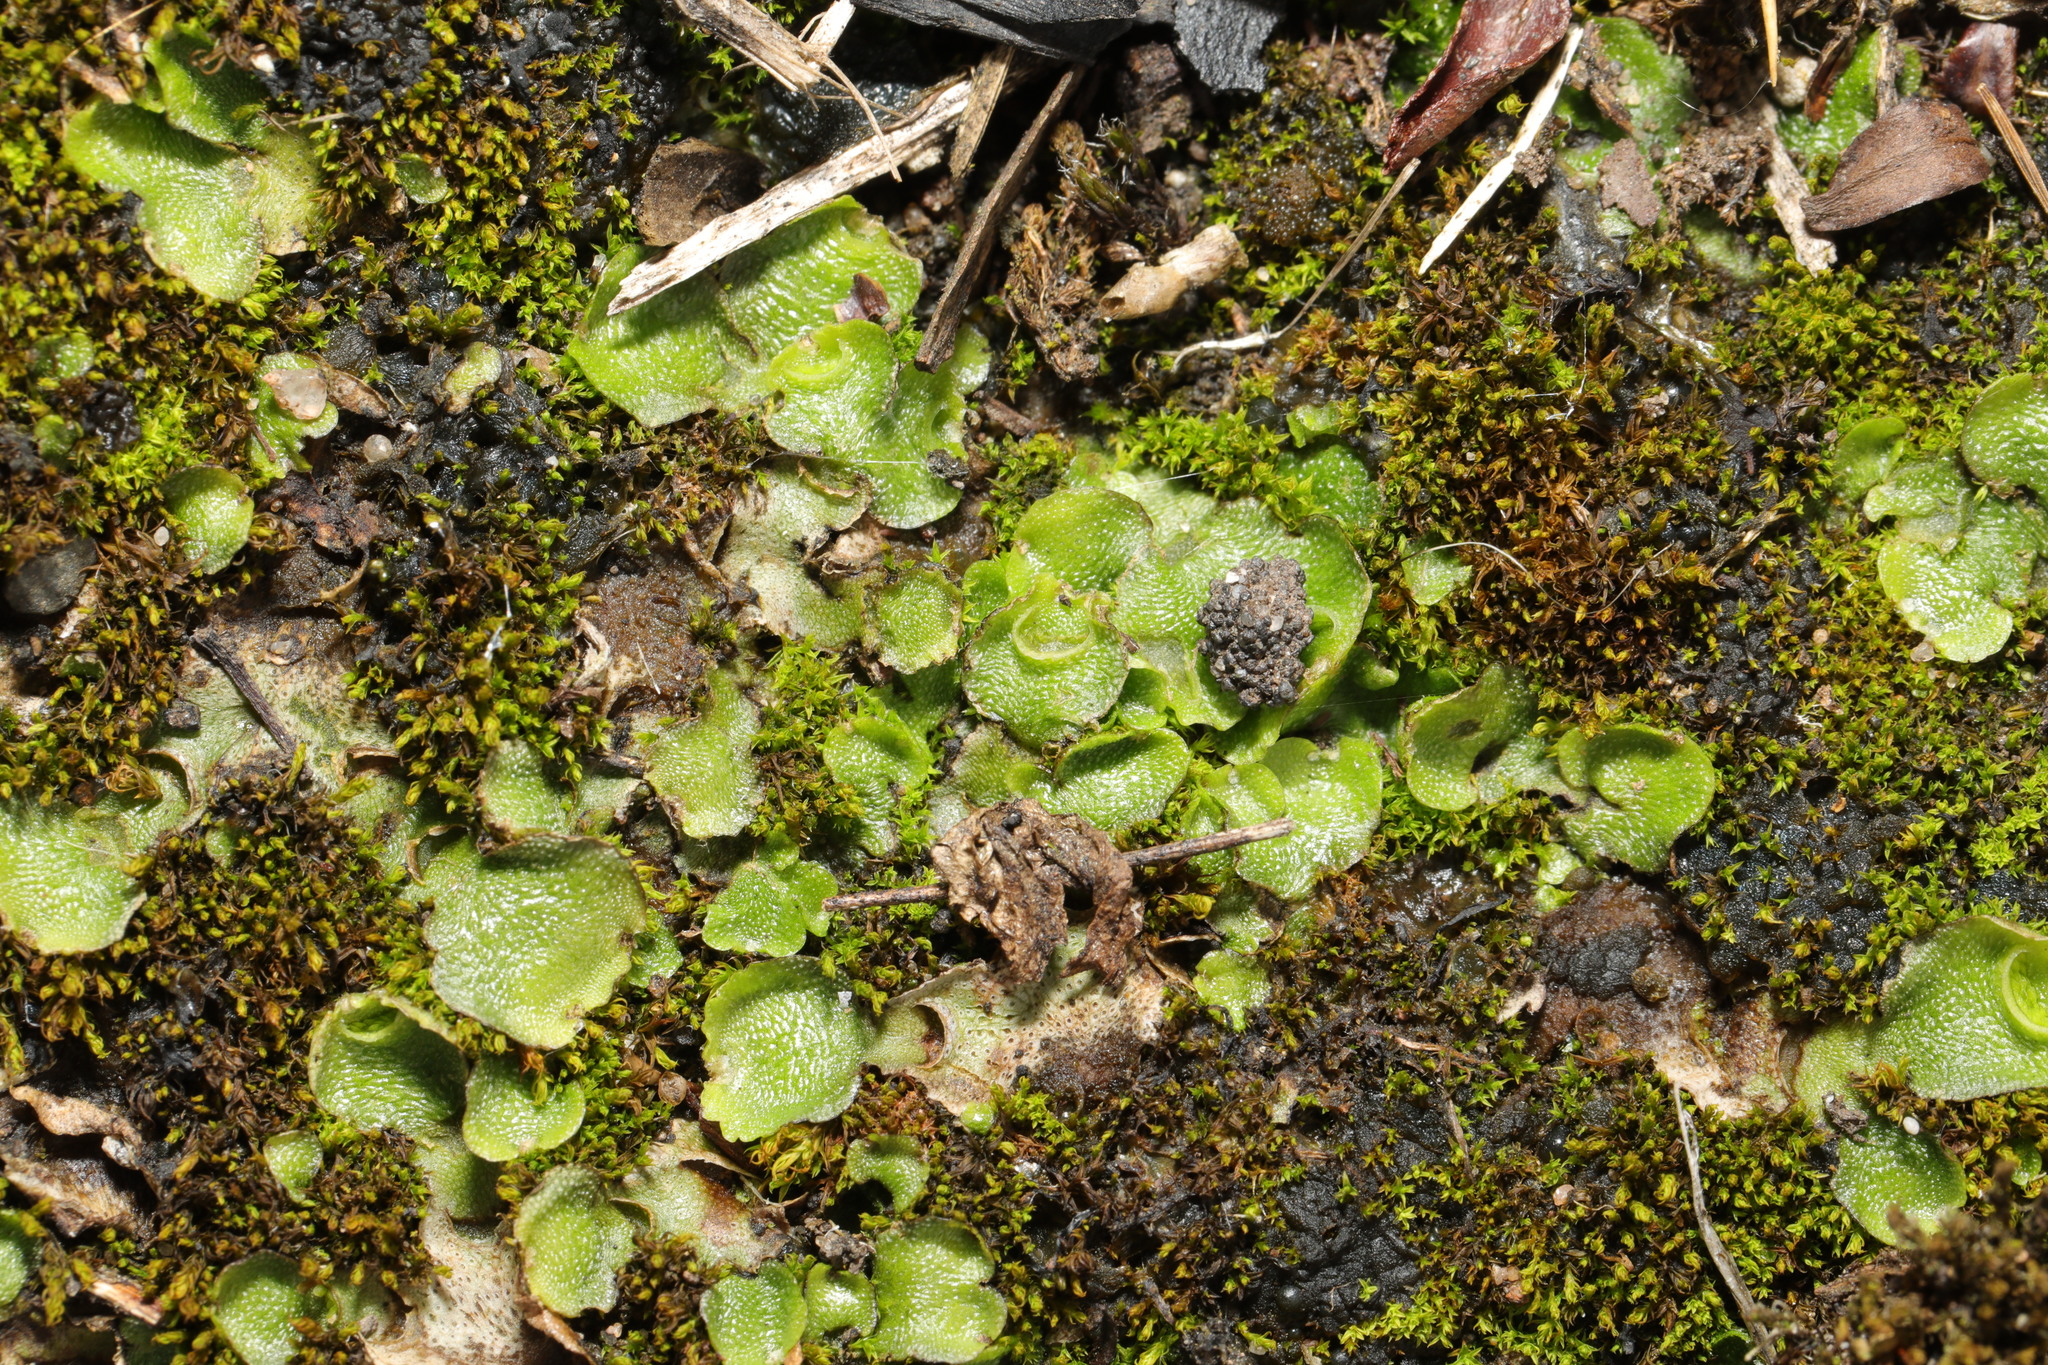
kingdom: Plantae
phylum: Marchantiophyta
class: Marchantiopsida
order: Lunulariales
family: Lunulariaceae
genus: Lunularia
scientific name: Lunularia cruciata
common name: Crescent-cup liverwort
